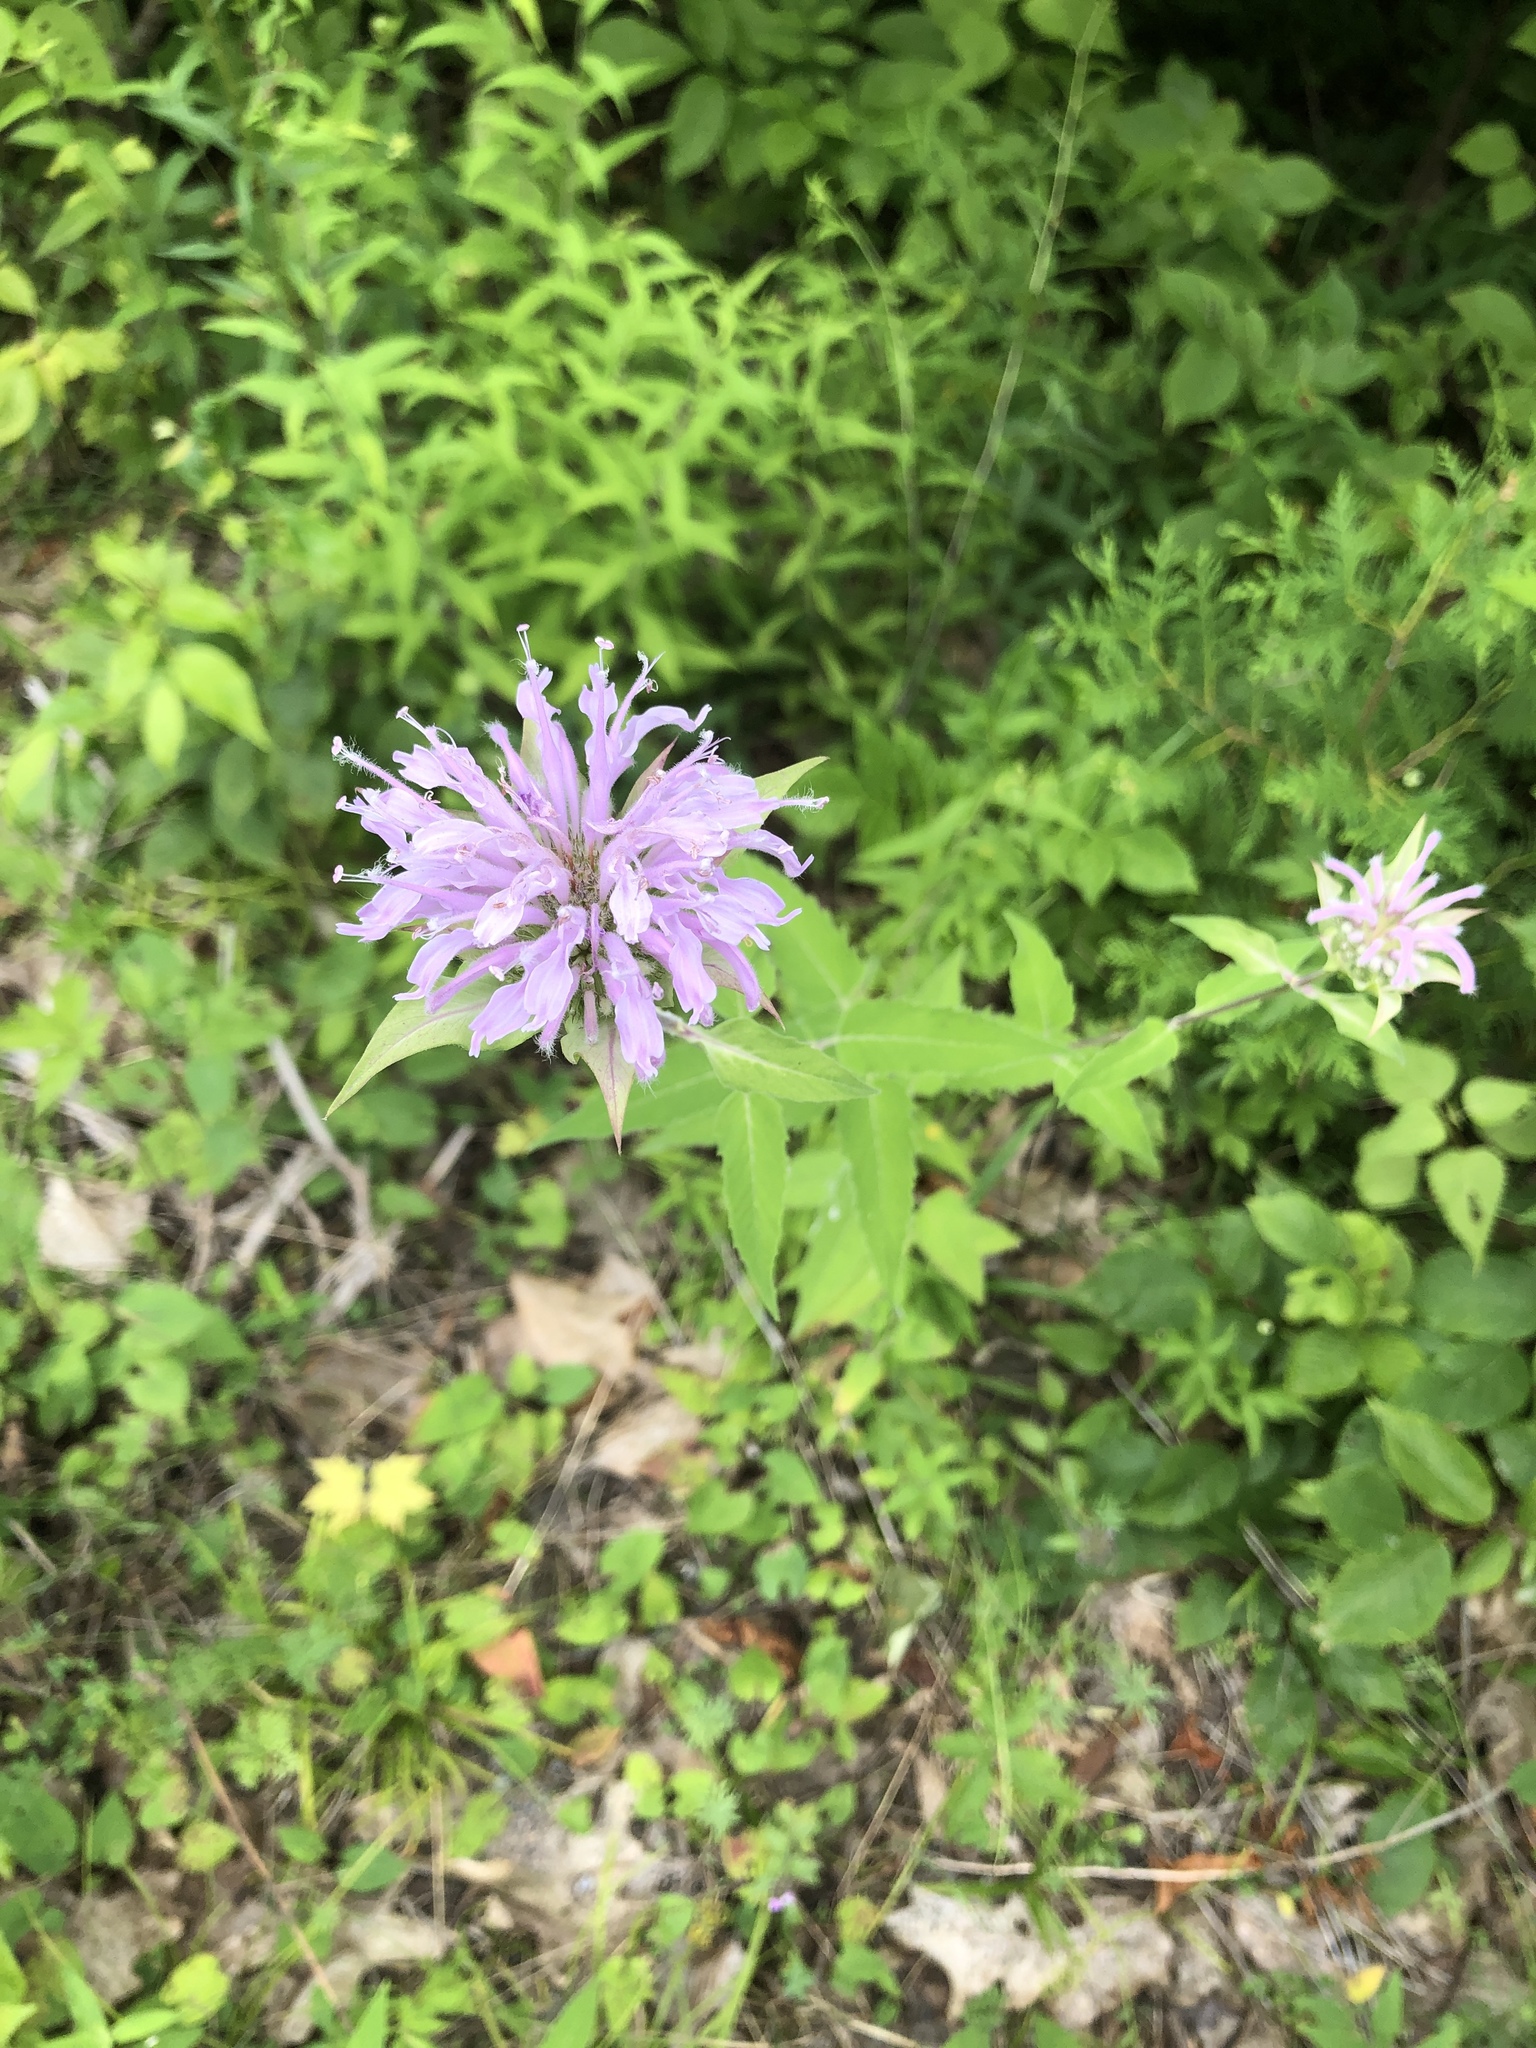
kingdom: Plantae
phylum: Tracheophyta
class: Magnoliopsida
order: Lamiales
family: Lamiaceae
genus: Monarda
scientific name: Monarda fistulosa
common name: Purple beebalm
